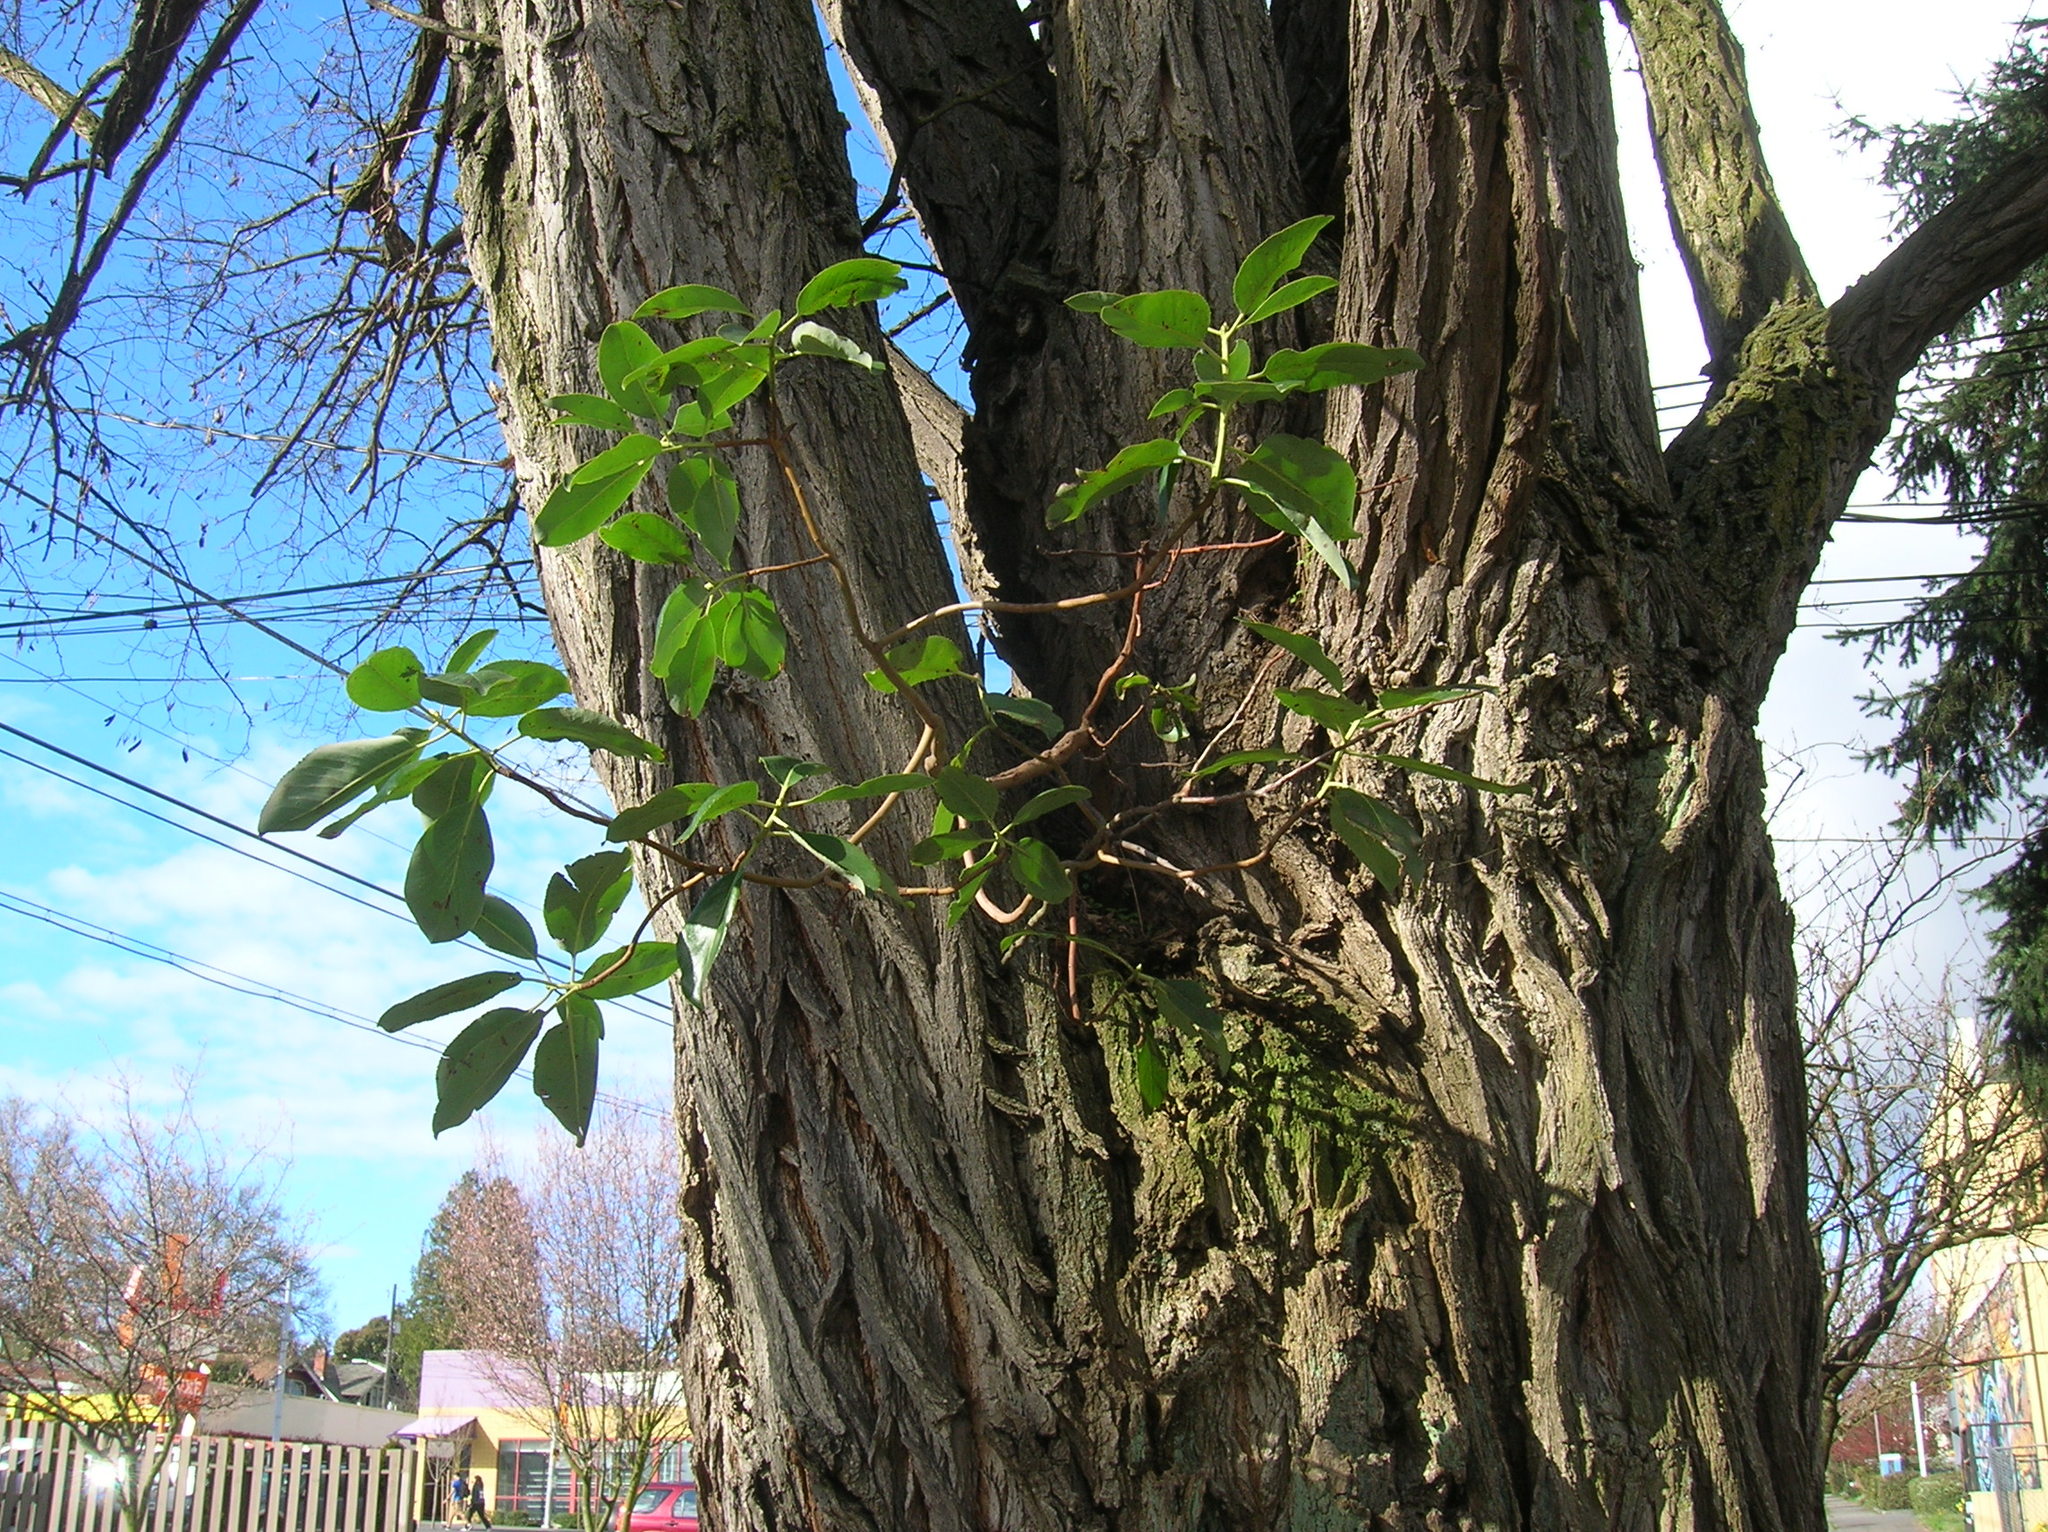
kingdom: Plantae
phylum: Tracheophyta
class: Magnoliopsida
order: Ericales
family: Ericaceae
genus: Arbutus
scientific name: Arbutus menziesii
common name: Pacific madrone
